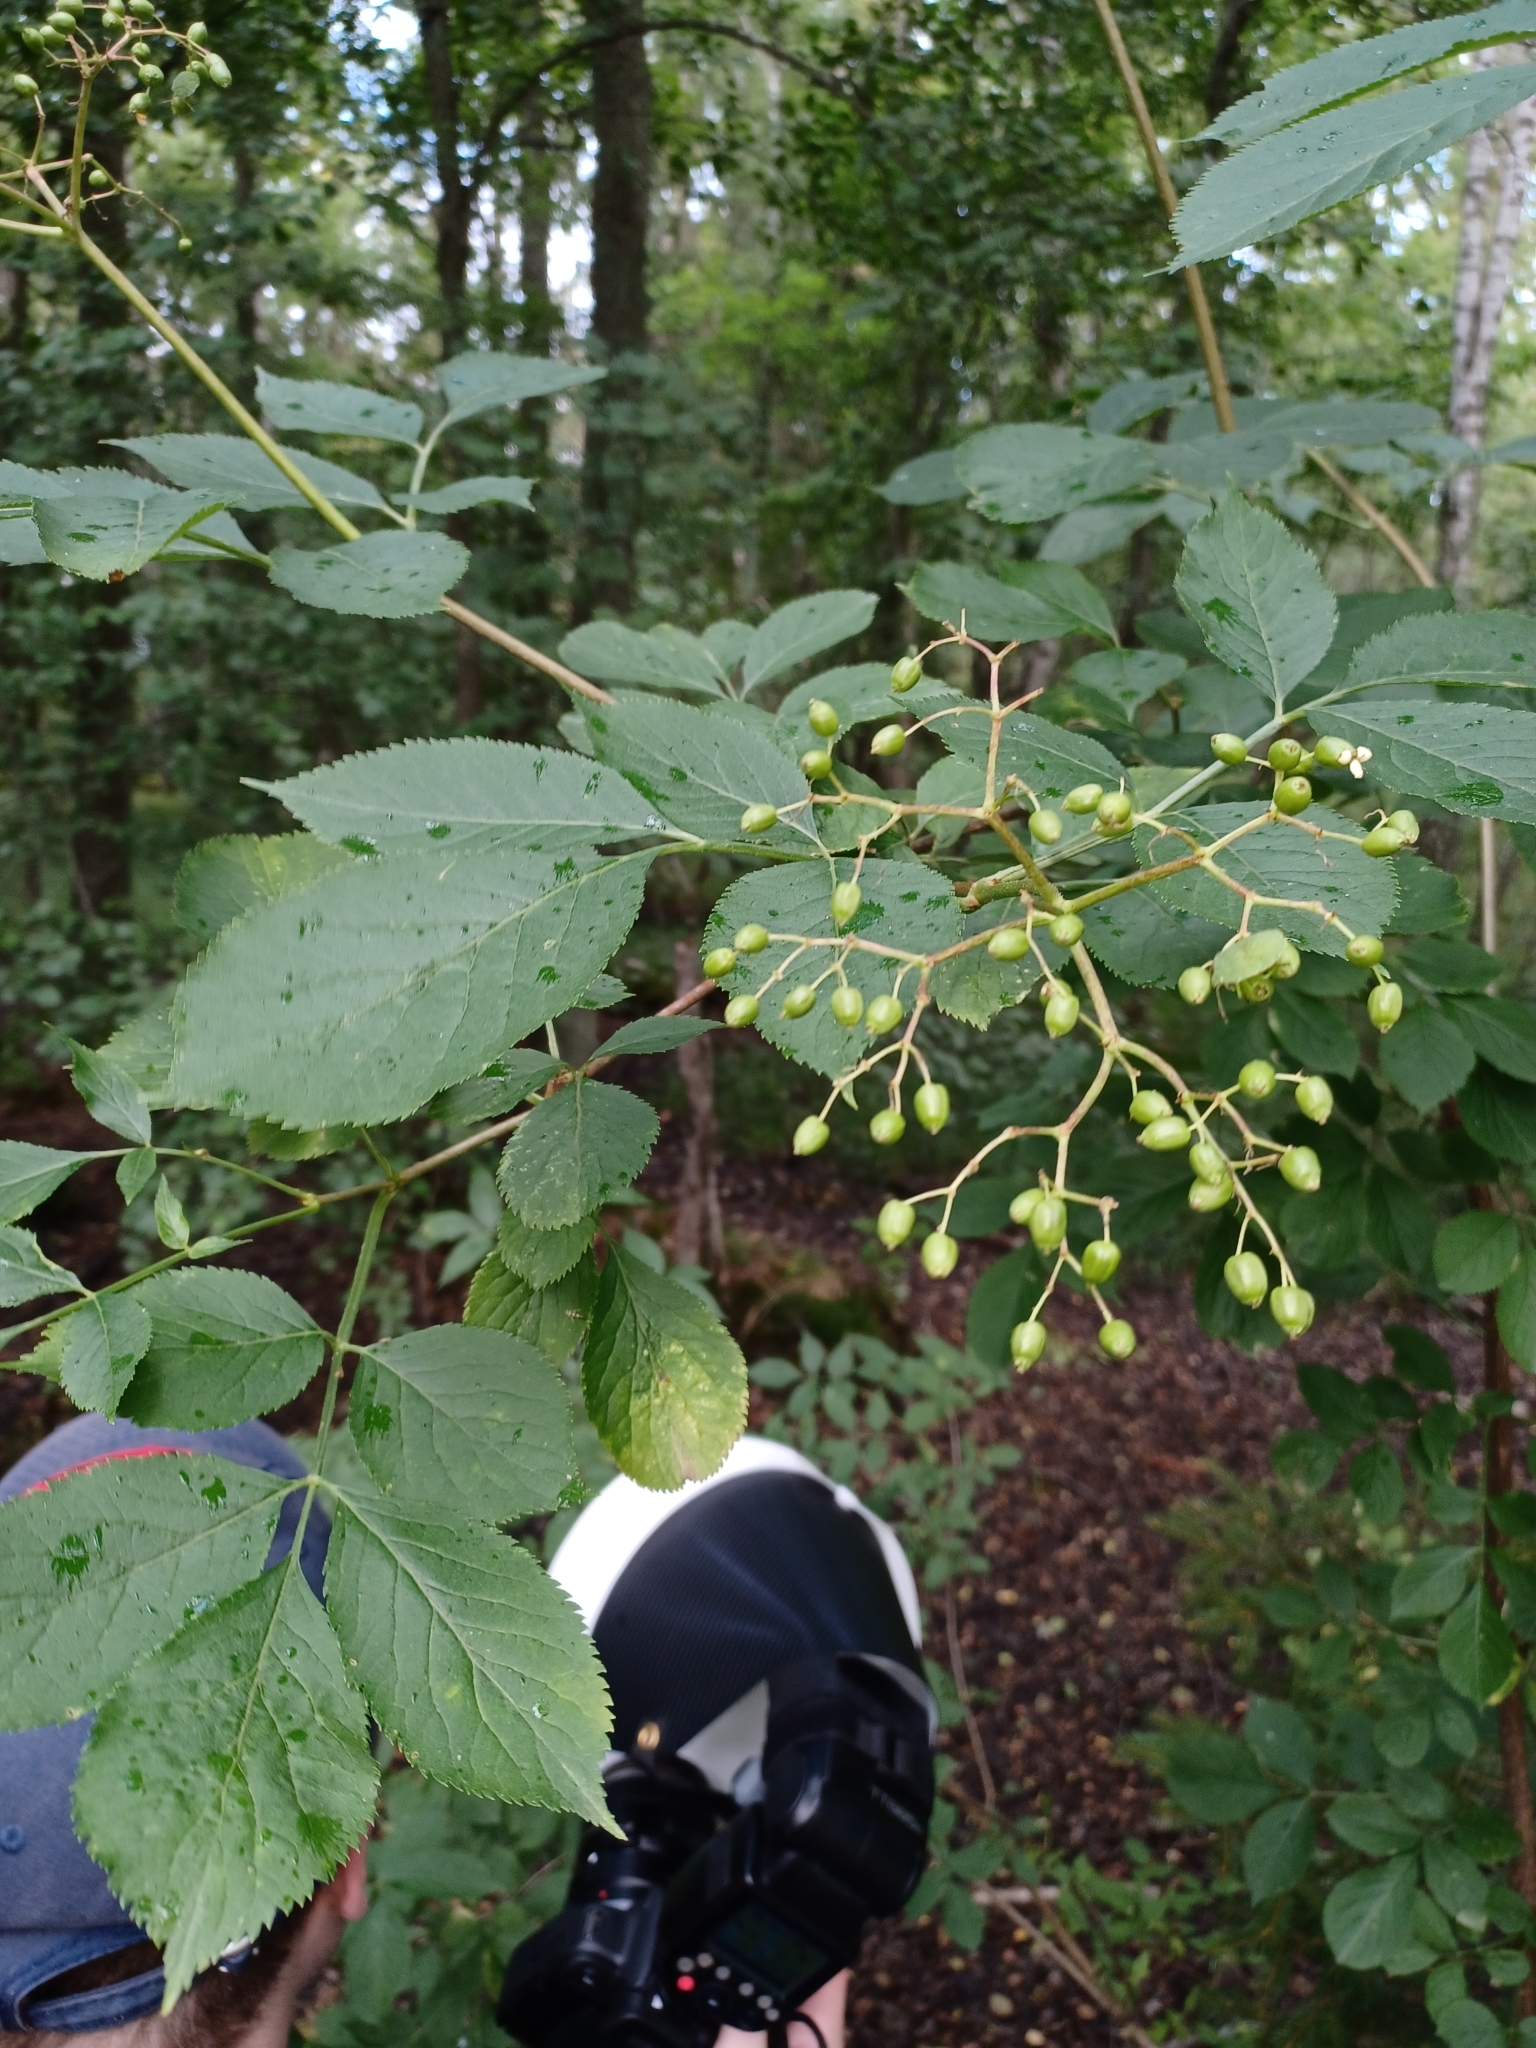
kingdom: Plantae
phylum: Tracheophyta
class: Magnoliopsida
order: Dipsacales
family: Viburnaceae
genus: Sambucus
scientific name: Sambucus nigra
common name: Elder
